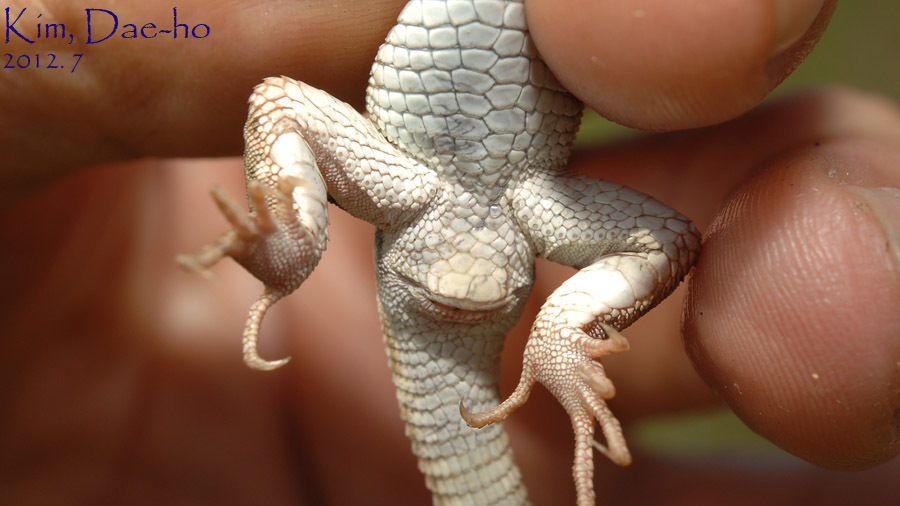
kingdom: Animalia
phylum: Chordata
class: Squamata
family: Lacertidae
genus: Eremias
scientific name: Eremias argus
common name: Mongolia racerunner
